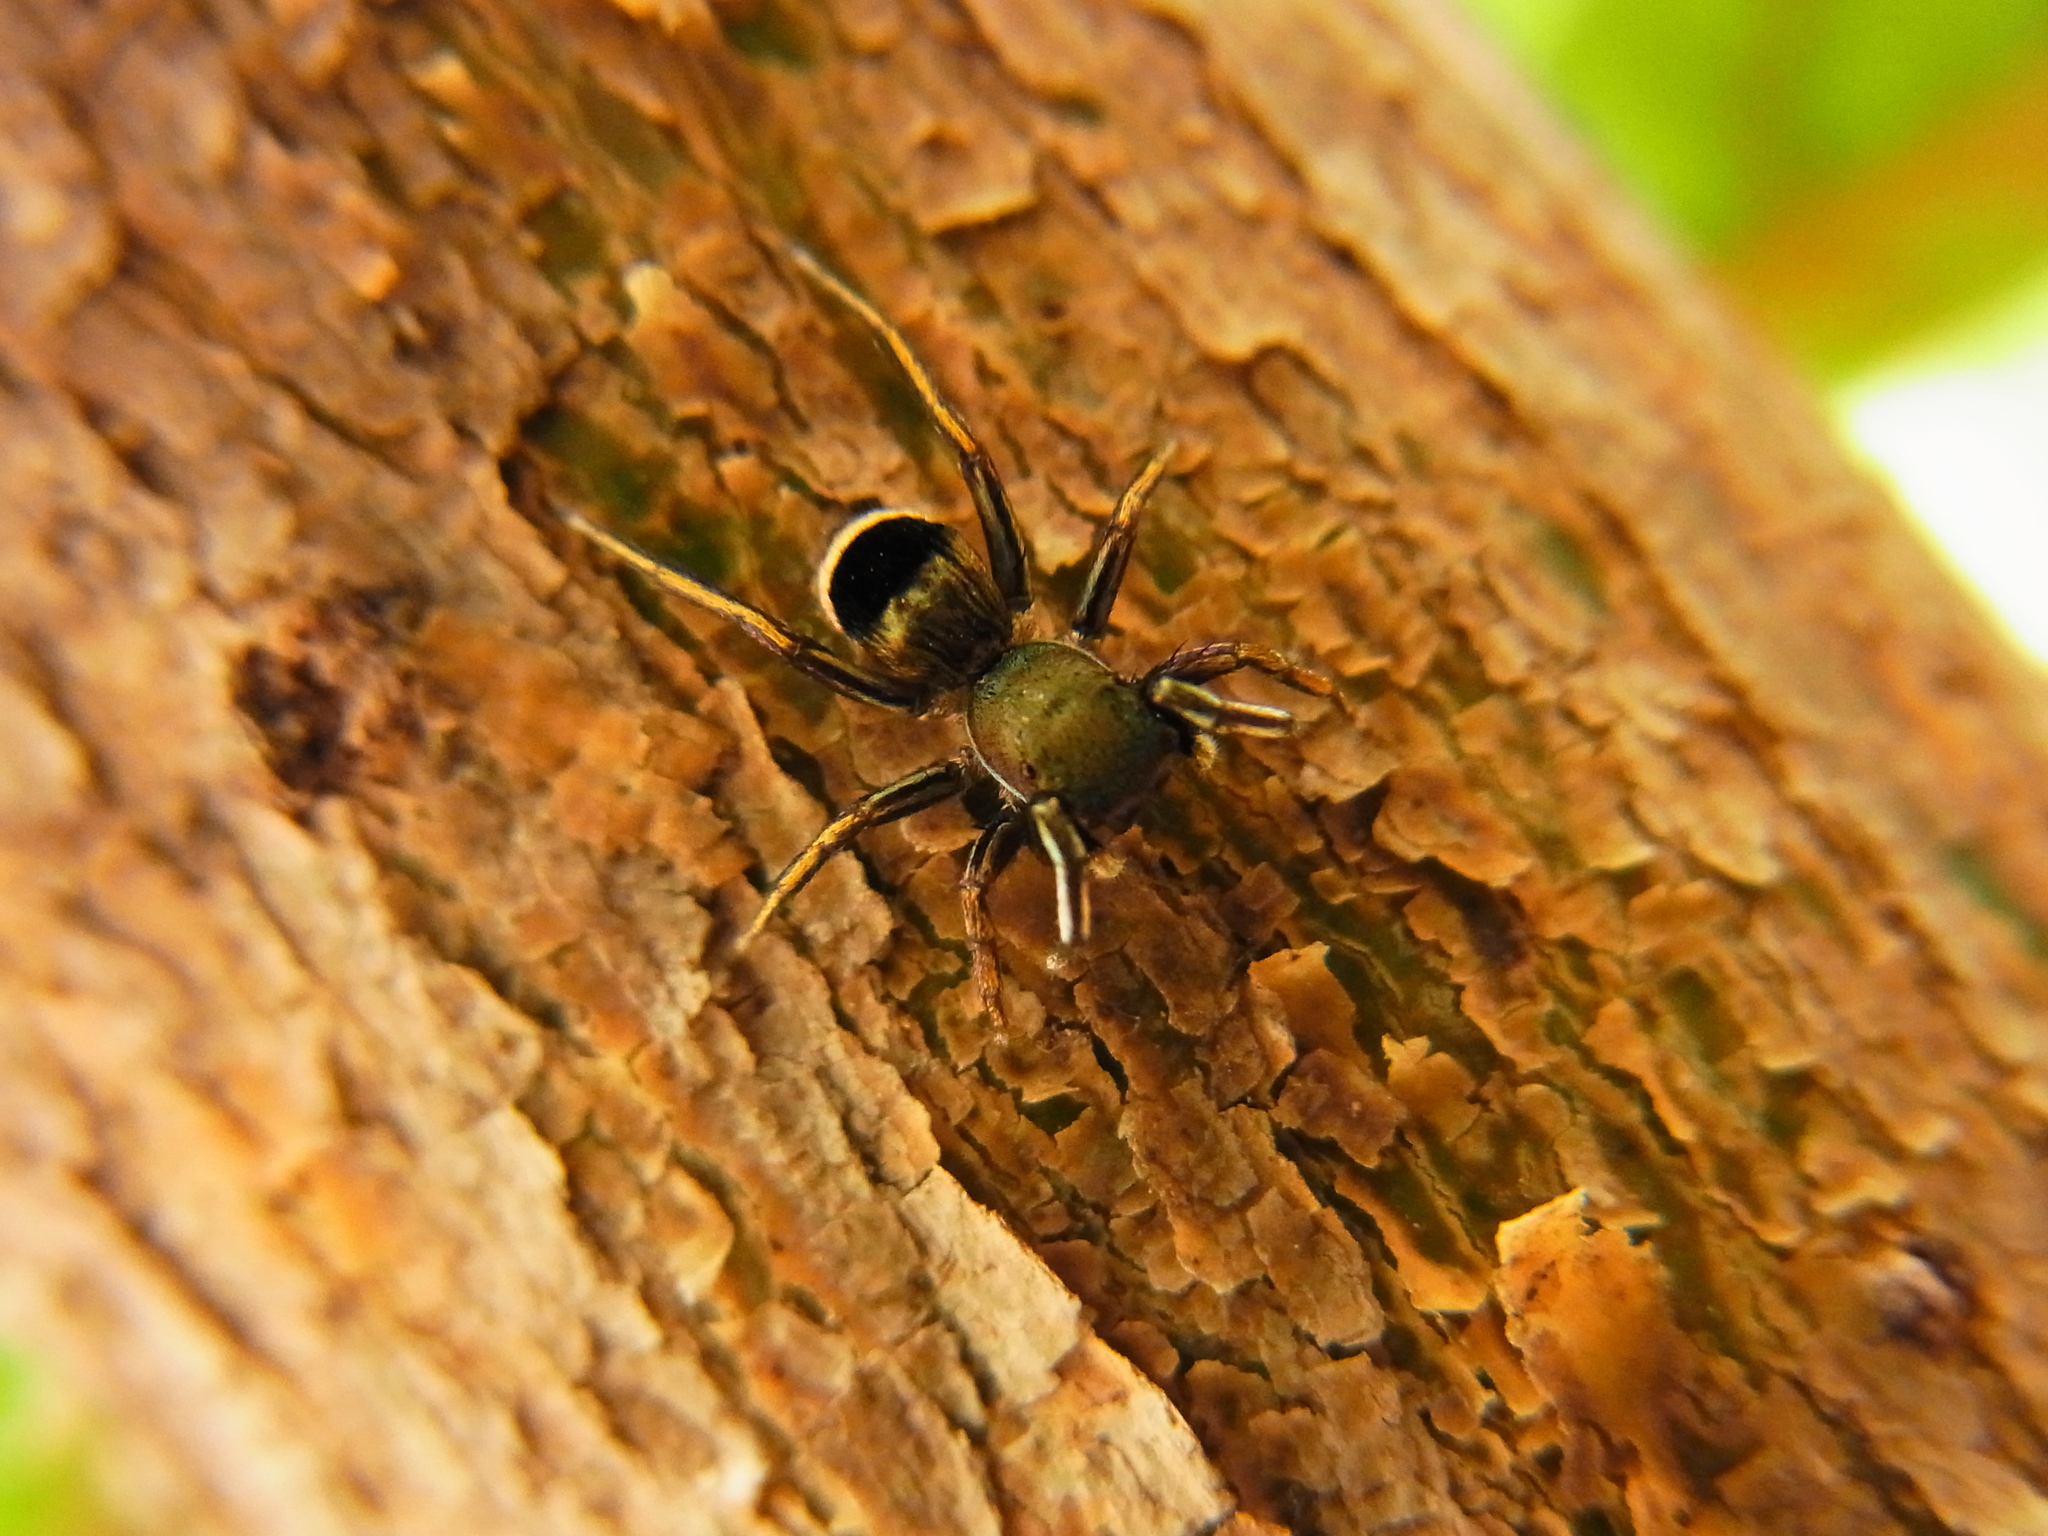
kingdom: Animalia
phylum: Arthropoda
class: Arachnida
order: Araneae
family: Salticidae
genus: Siler
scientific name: Siler cupreus
